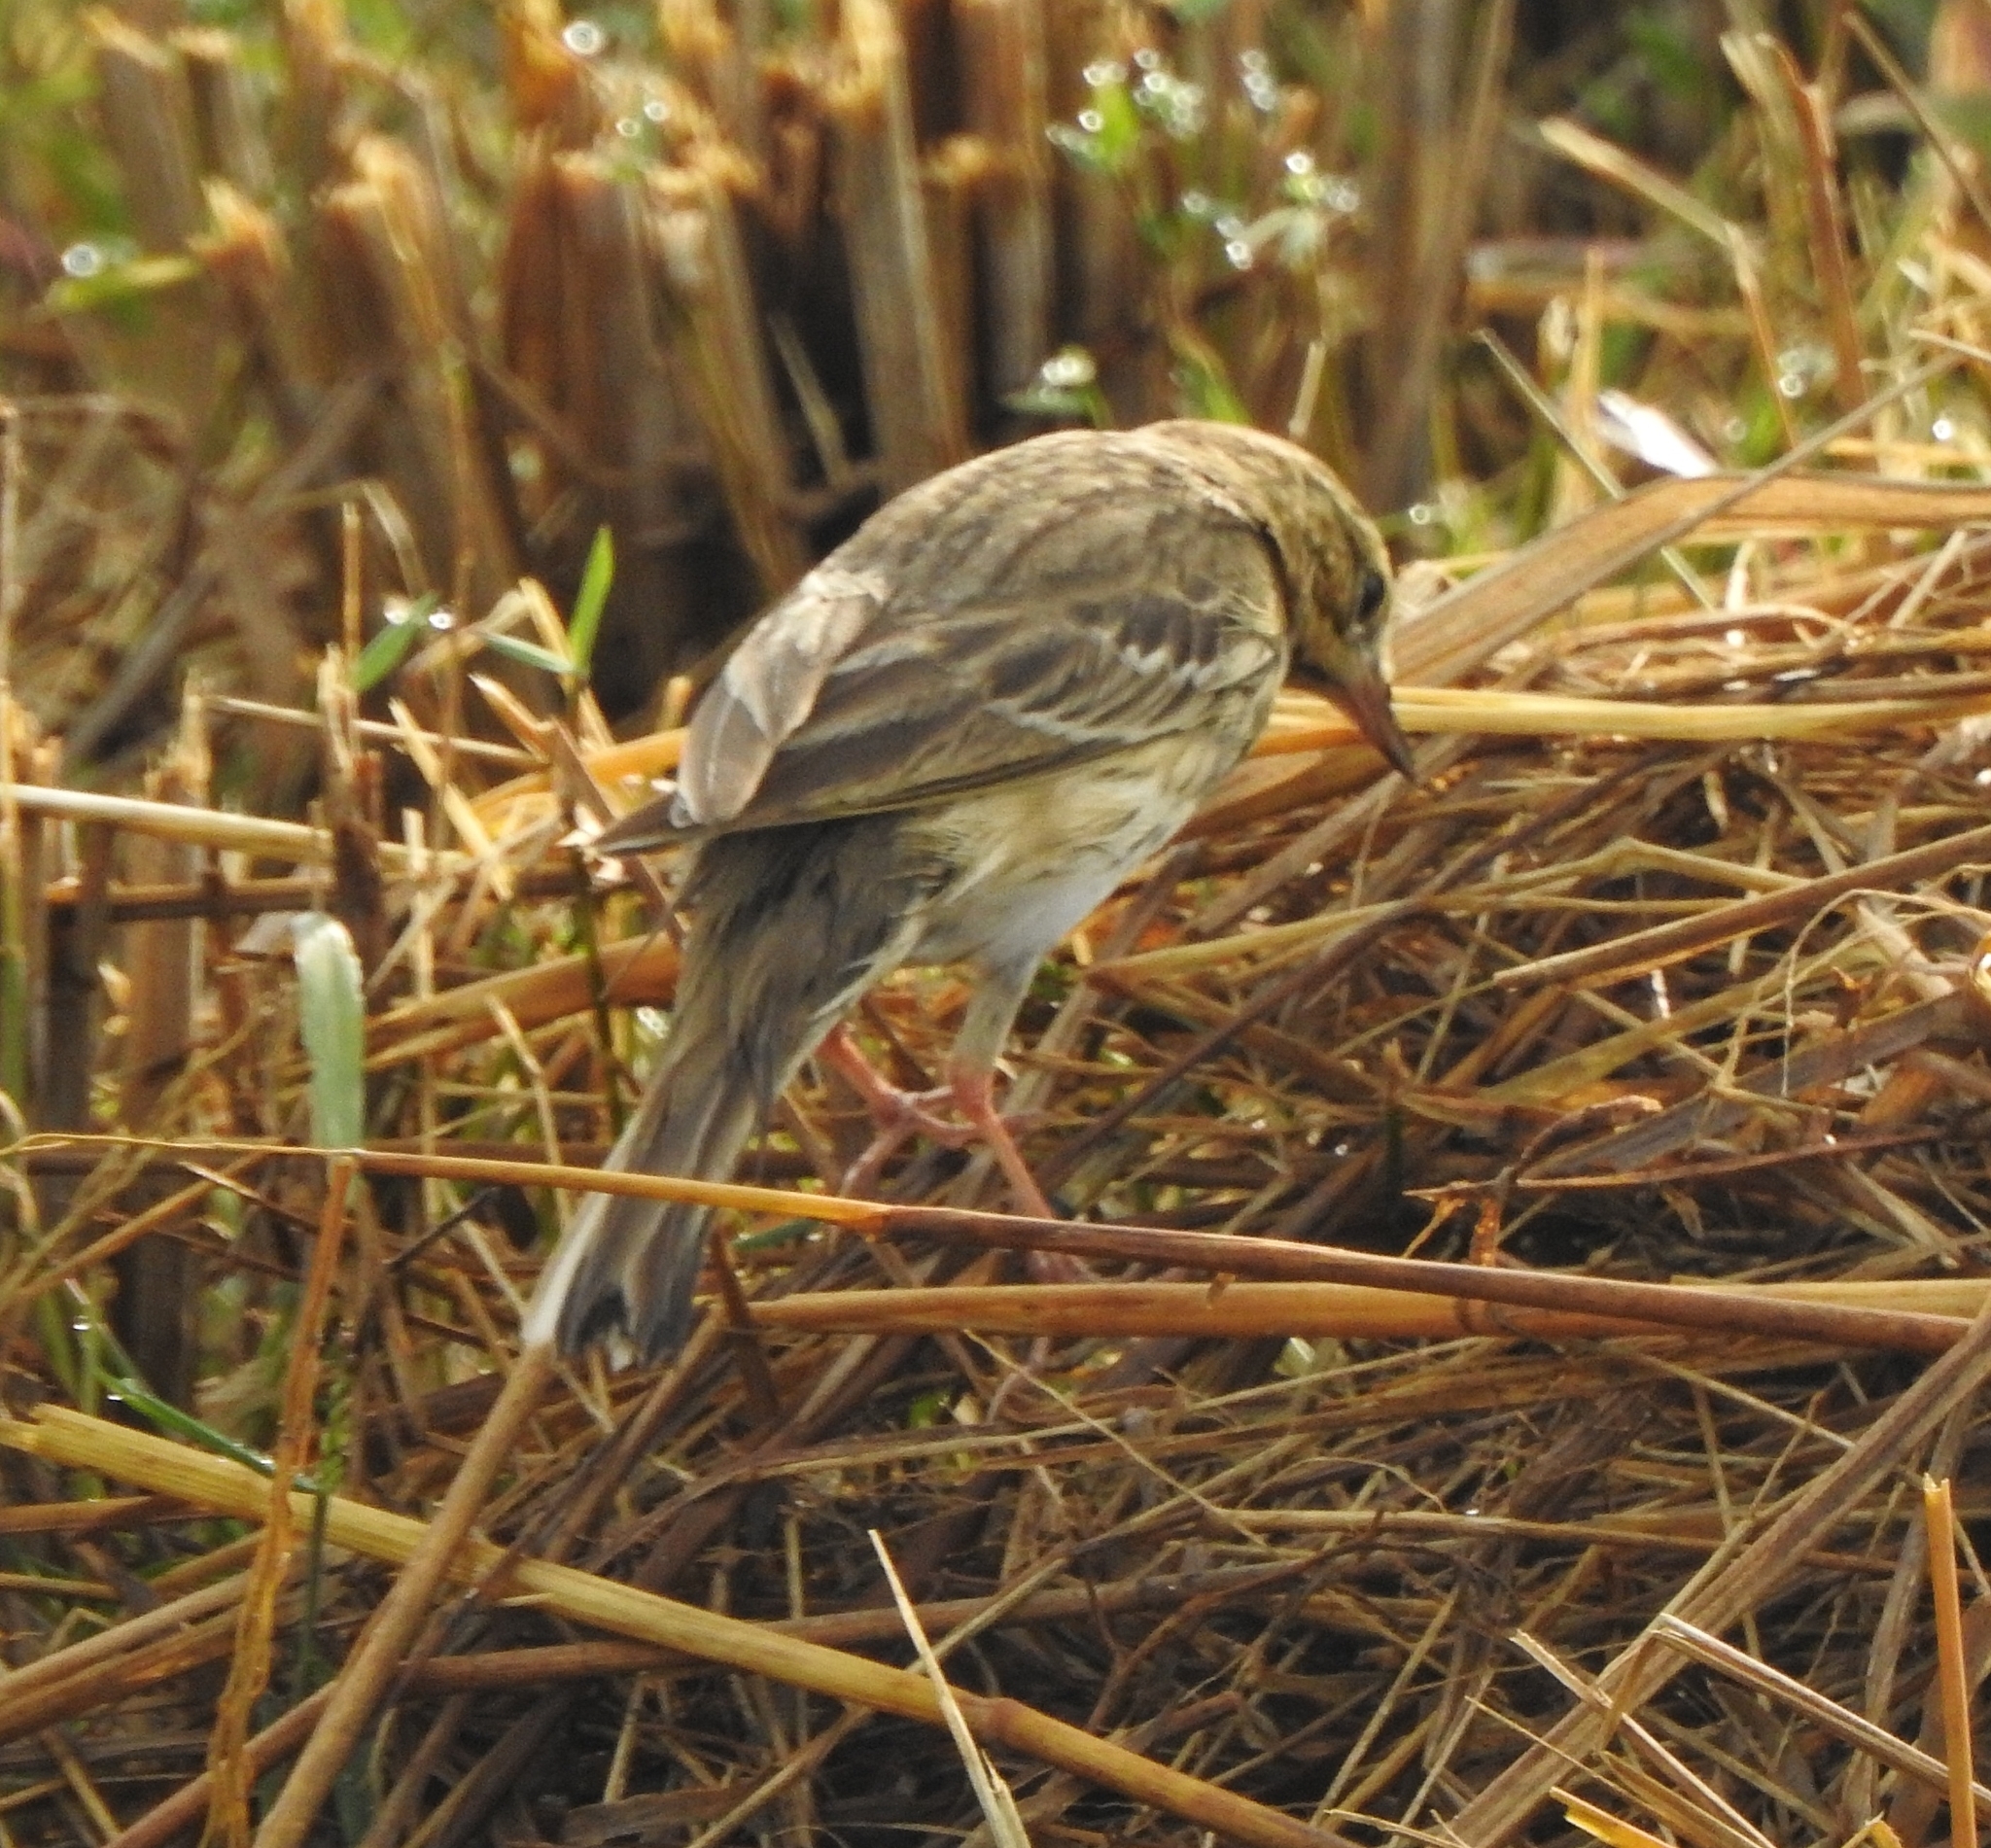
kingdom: Animalia
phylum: Chordata
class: Aves
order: Passeriformes
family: Motacillidae
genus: Anthus
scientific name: Anthus trivialis
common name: Tree pipit
